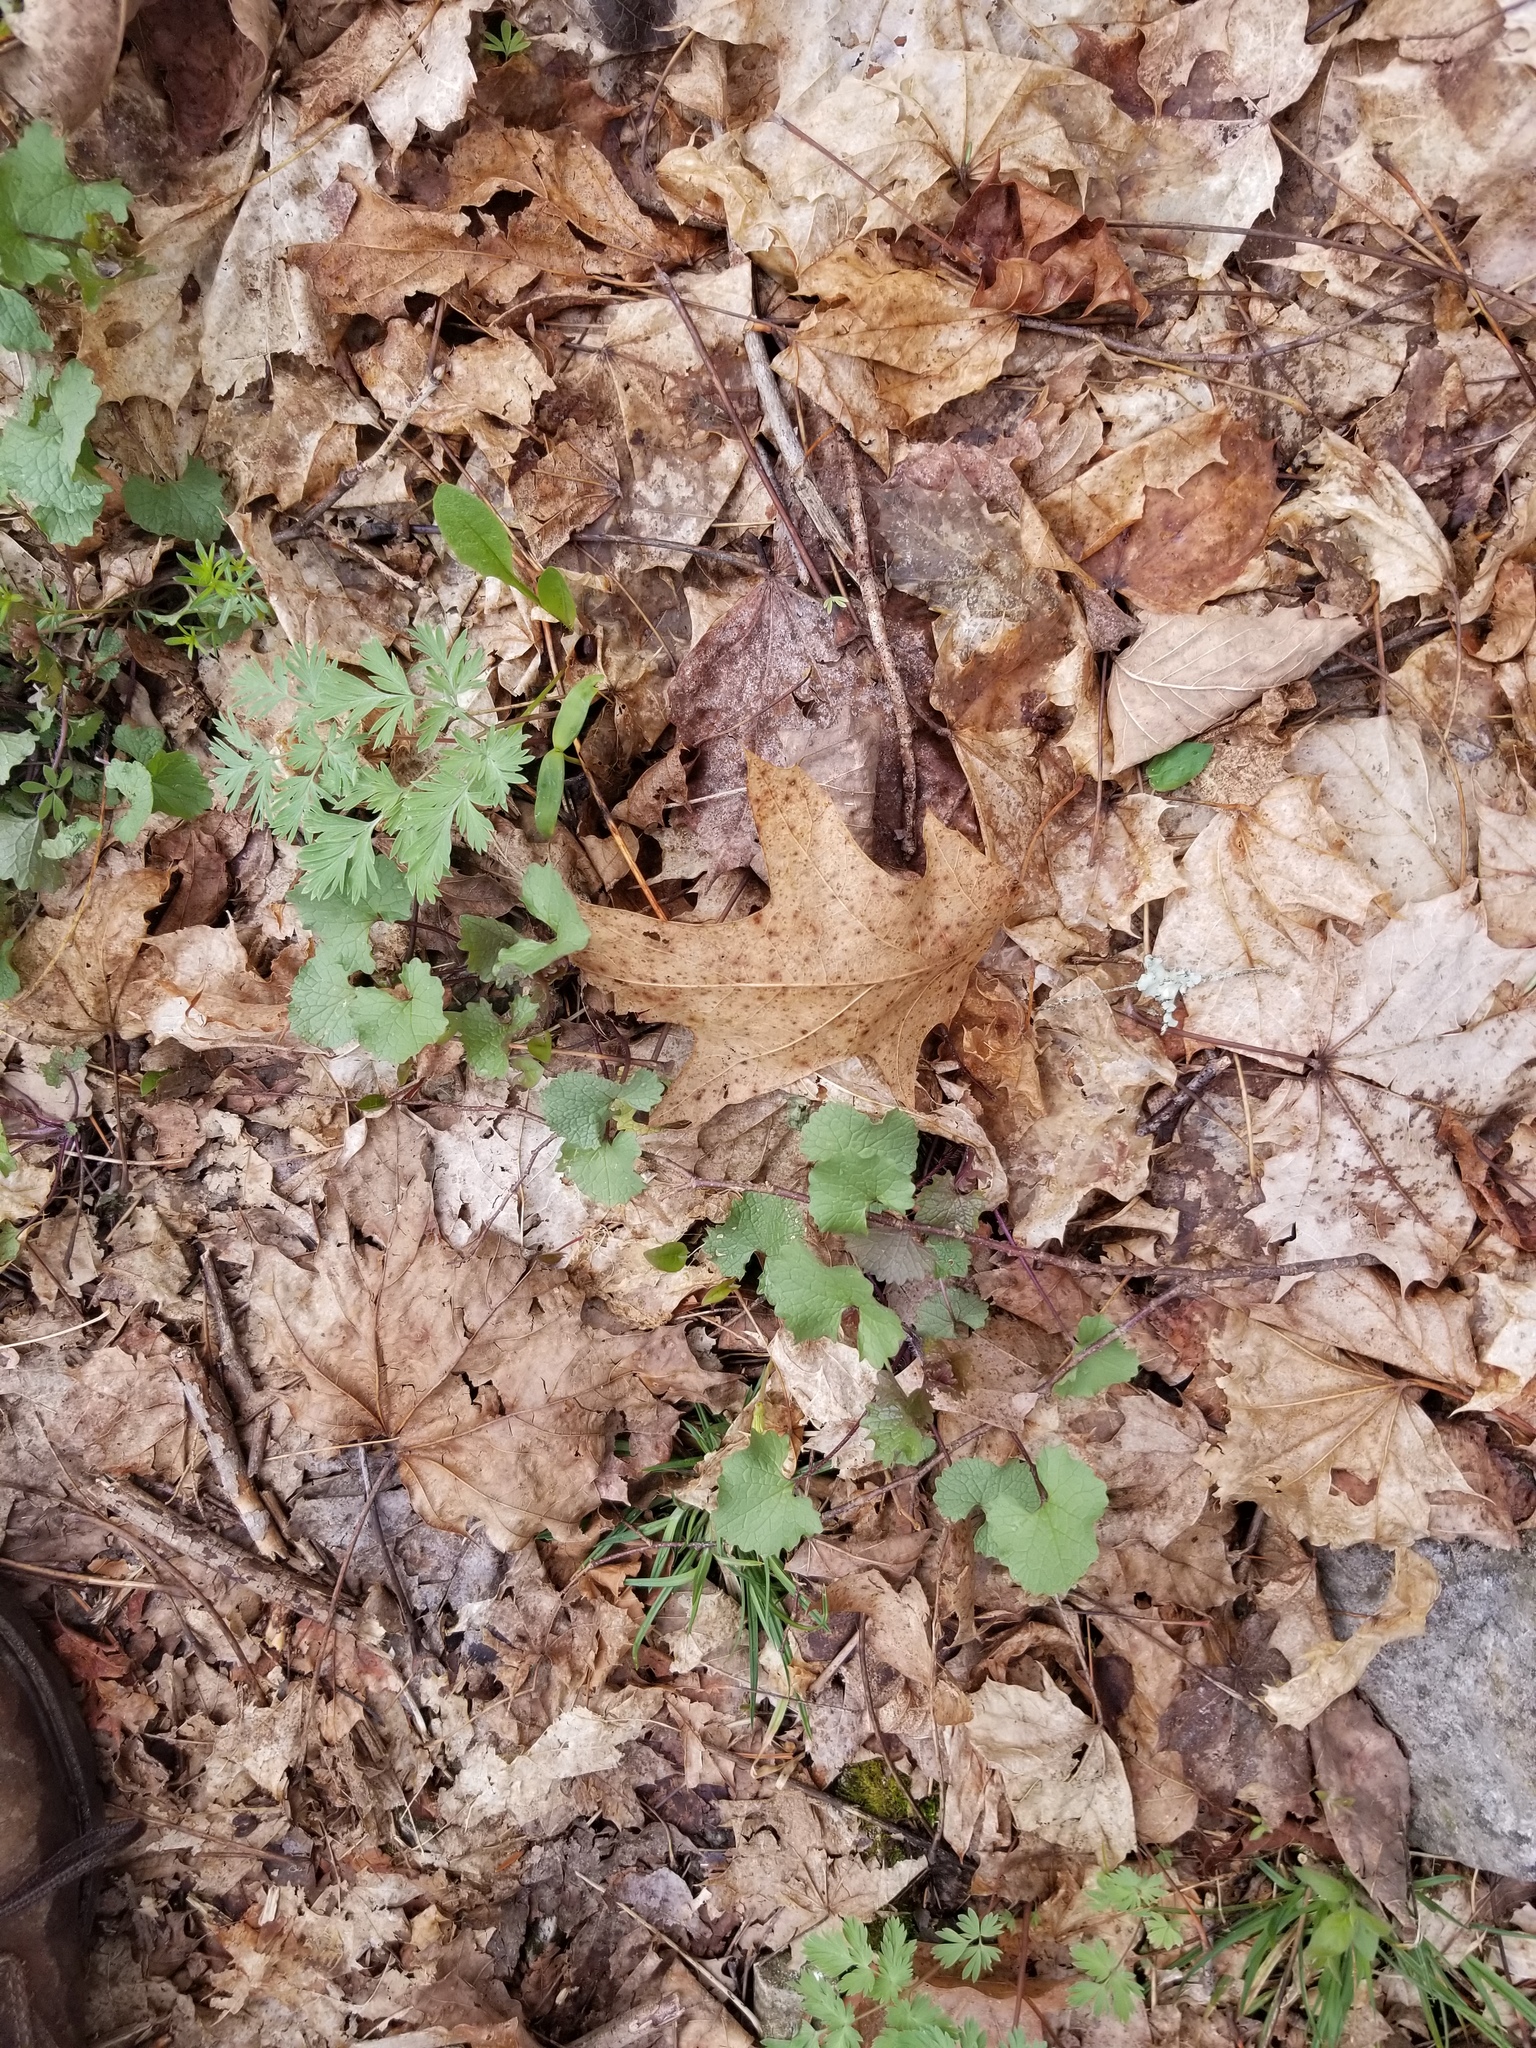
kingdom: Plantae
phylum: Tracheophyta
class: Magnoliopsida
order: Brassicales
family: Brassicaceae
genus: Alliaria
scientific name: Alliaria petiolata
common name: Garlic mustard
